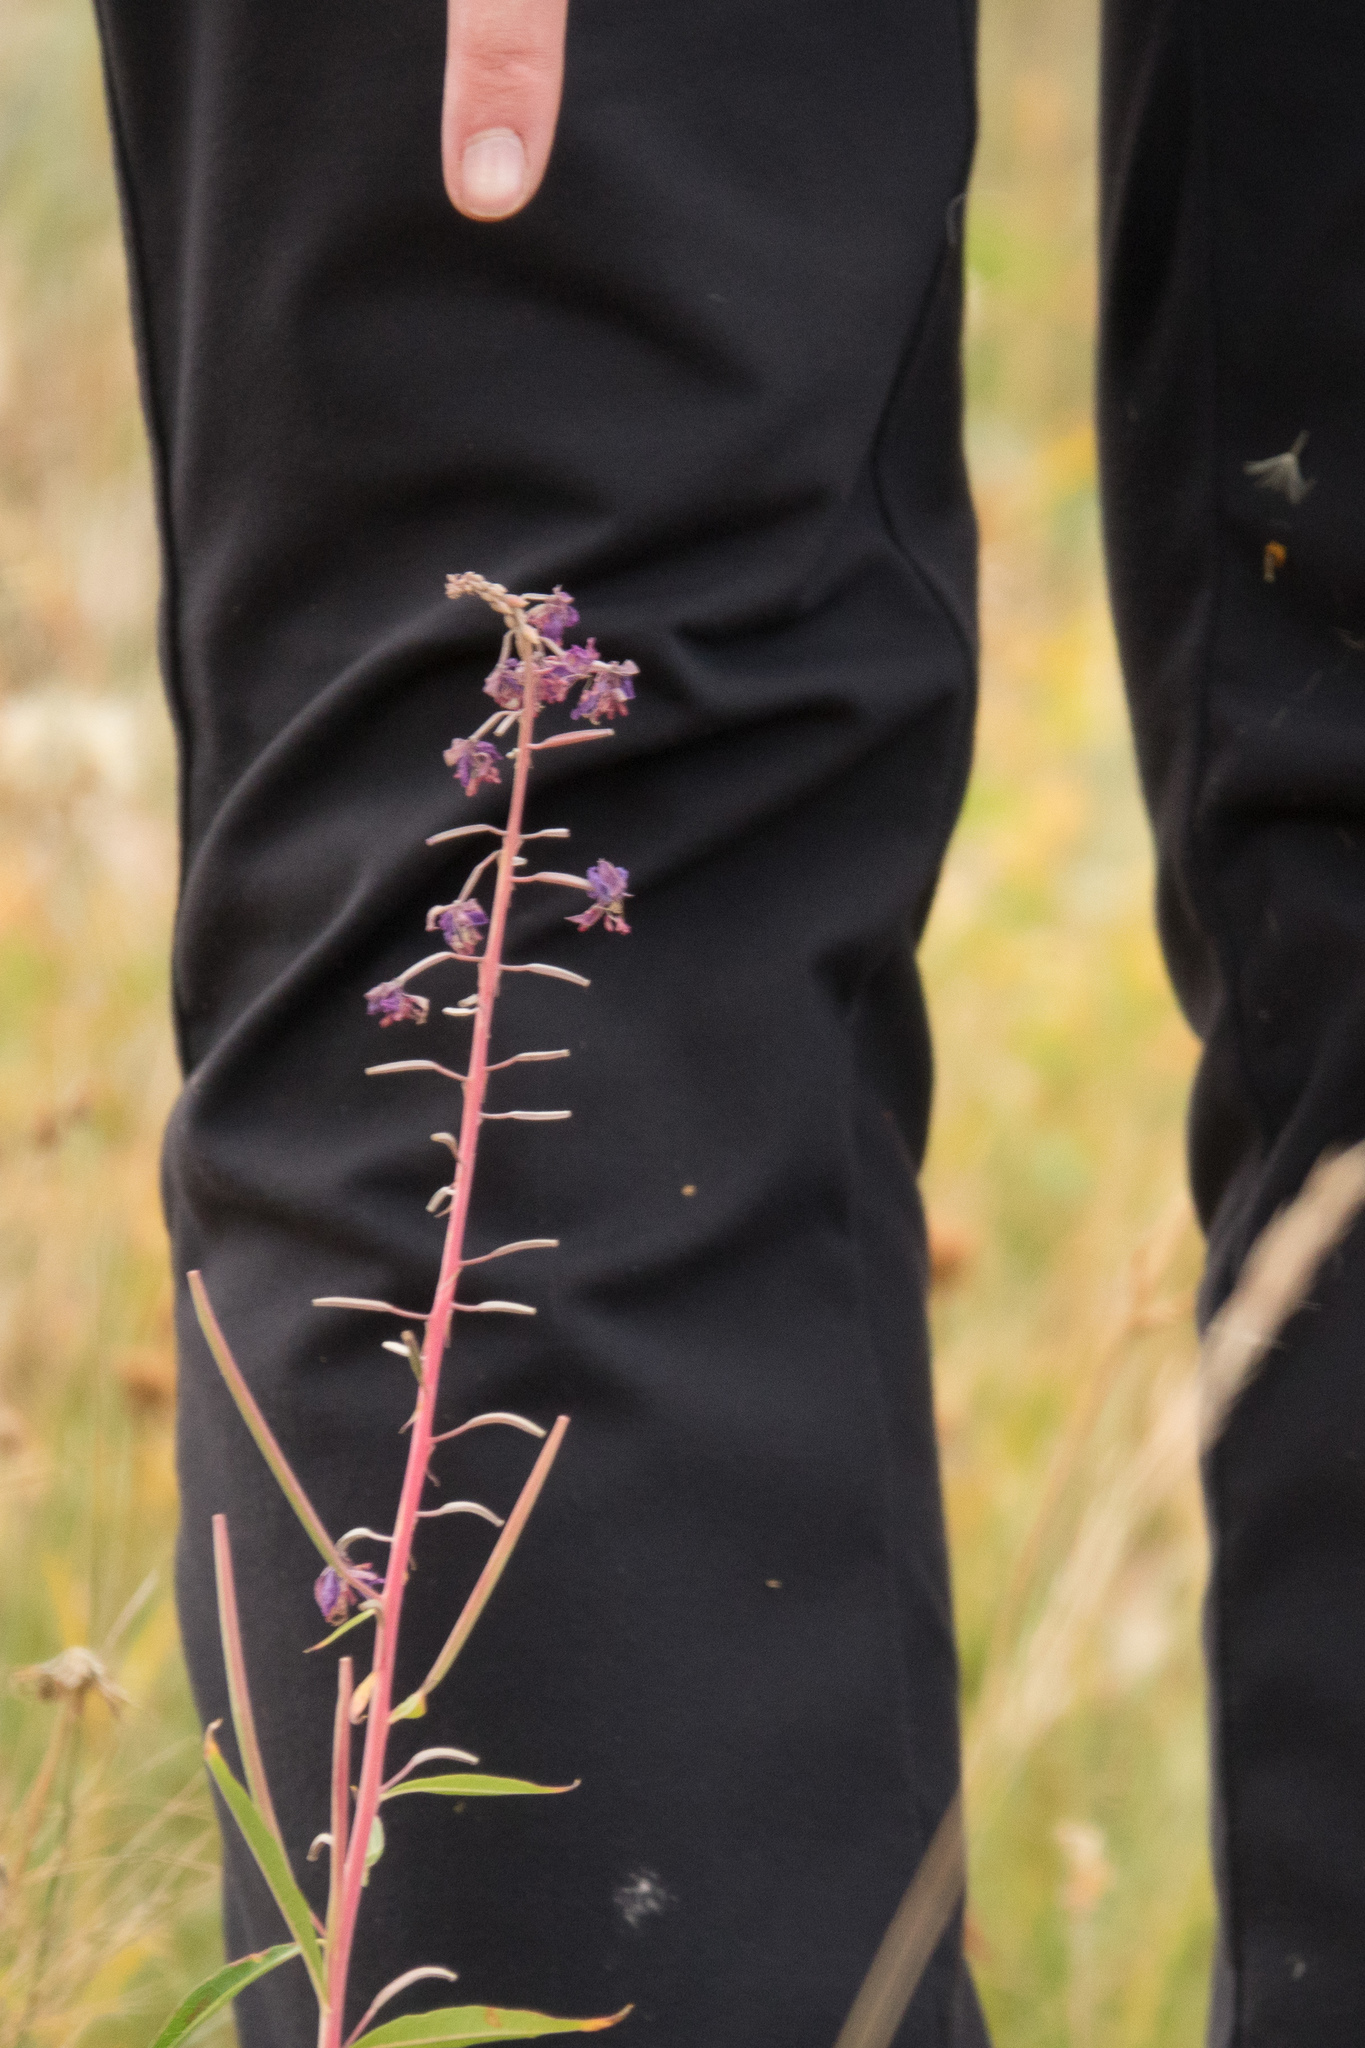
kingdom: Plantae
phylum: Tracheophyta
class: Magnoliopsida
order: Myrtales
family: Onagraceae
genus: Chamaenerion
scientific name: Chamaenerion angustifolium
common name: Fireweed
